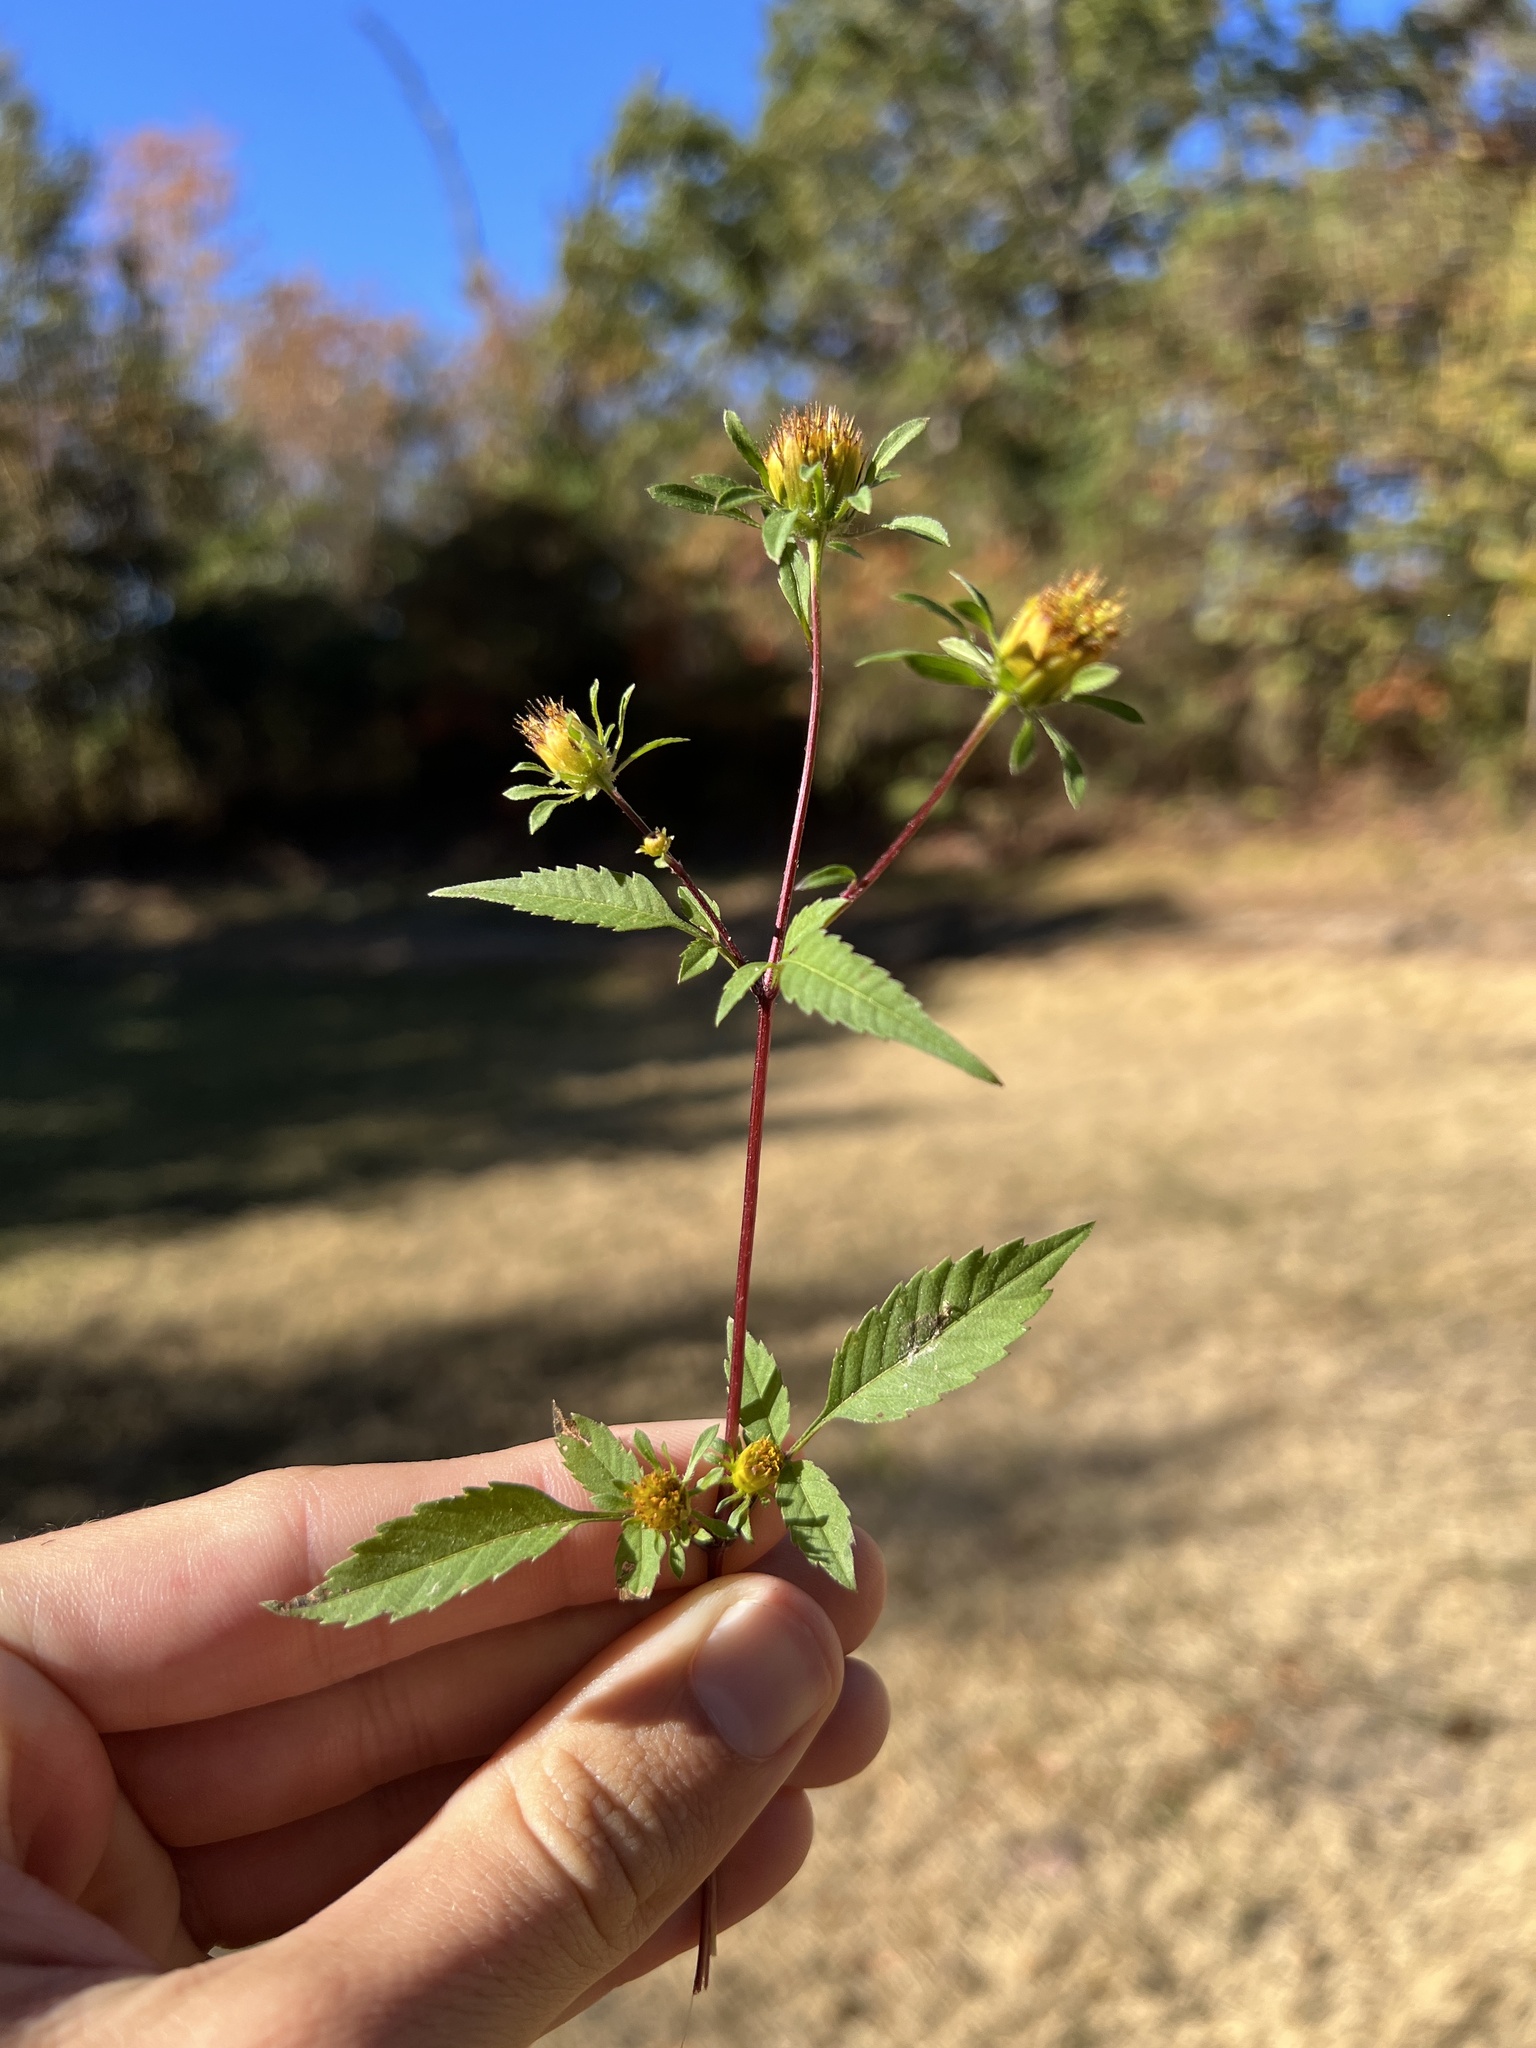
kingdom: Plantae
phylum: Tracheophyta
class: Magnoliopsida
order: Asterales
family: Asteraceae
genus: Bidens
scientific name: Bidens frondosa
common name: Beggarticks
